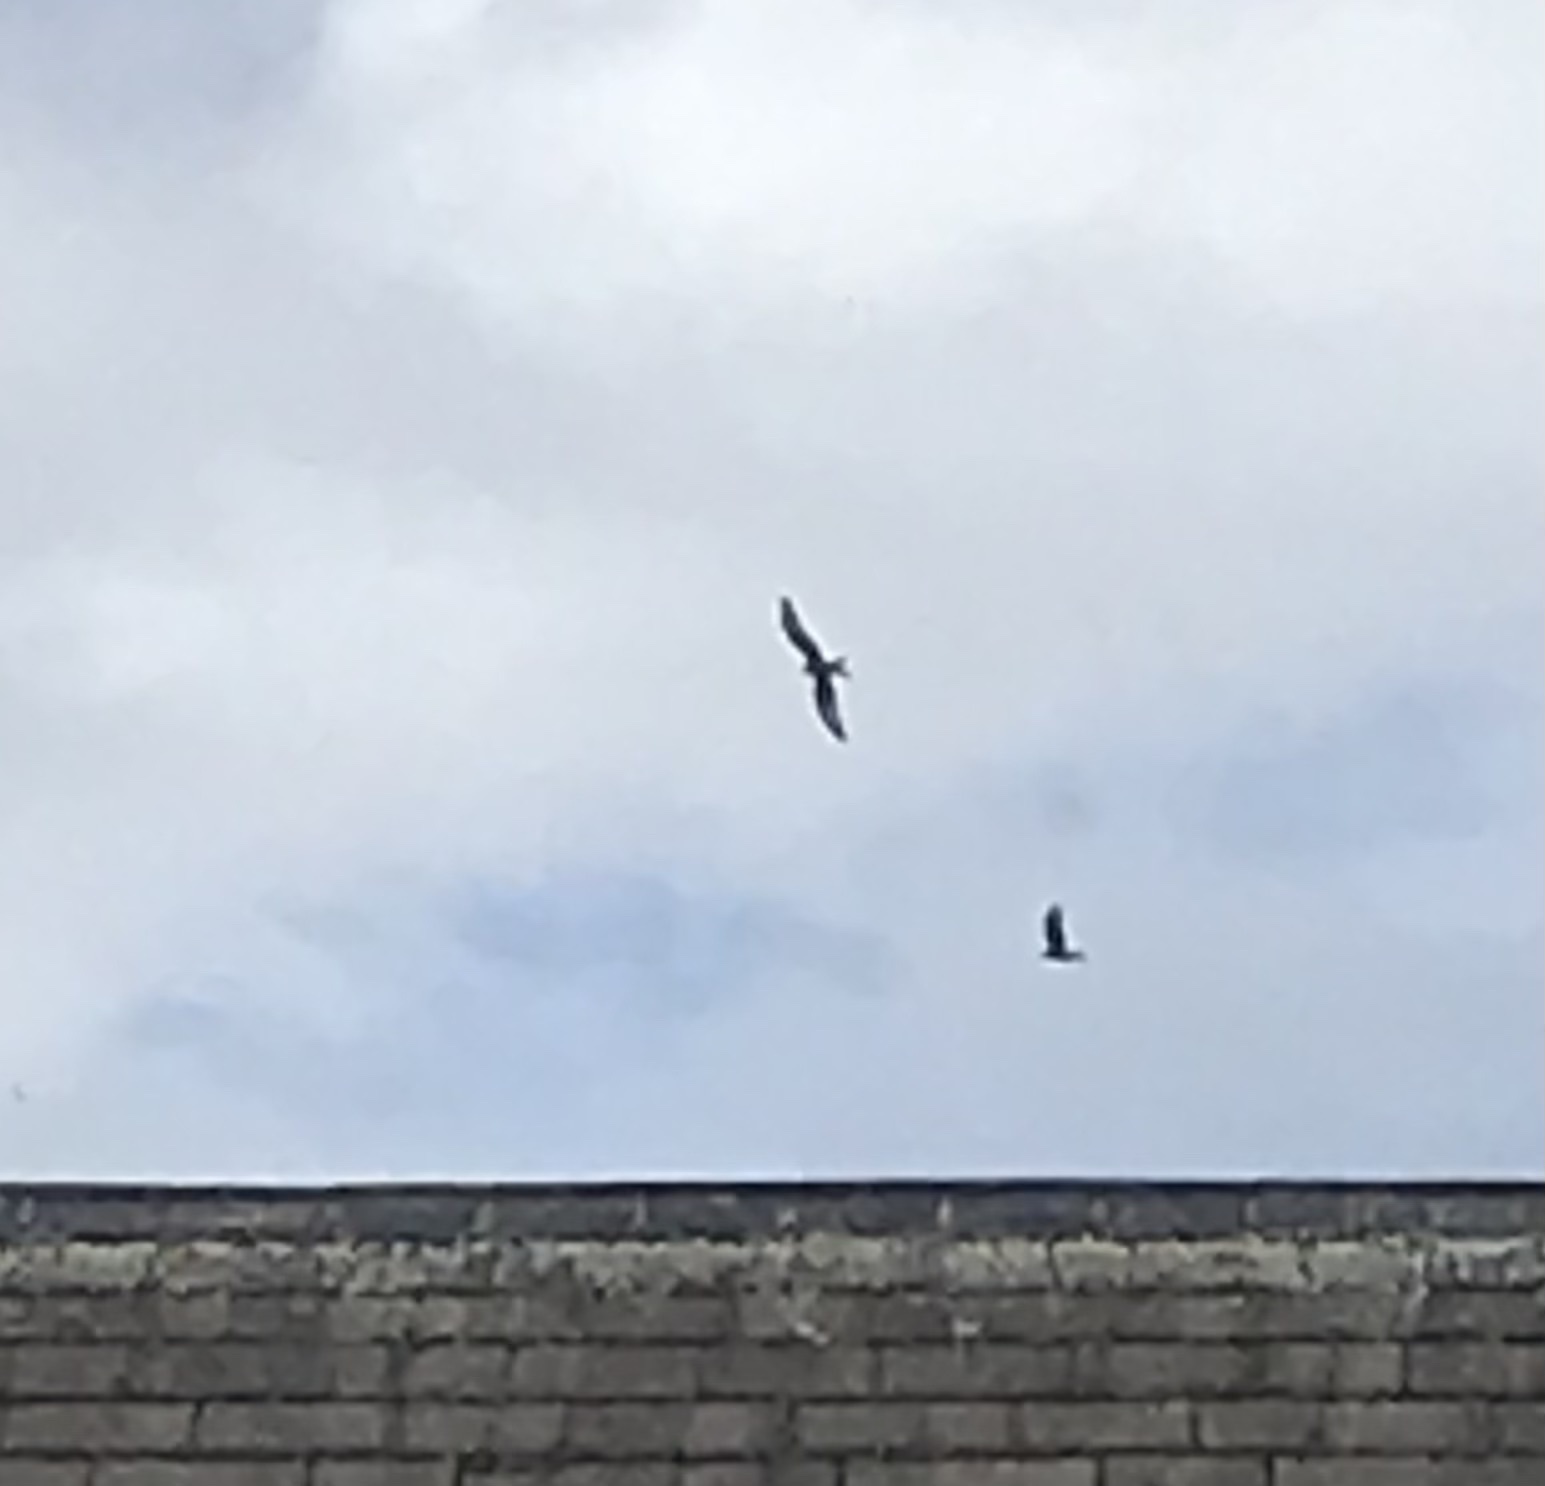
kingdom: Animalia
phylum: Chordata
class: Aves
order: Accipitriformes
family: Accipitridae
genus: Milvus
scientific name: Milvus milvus
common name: Red kite
